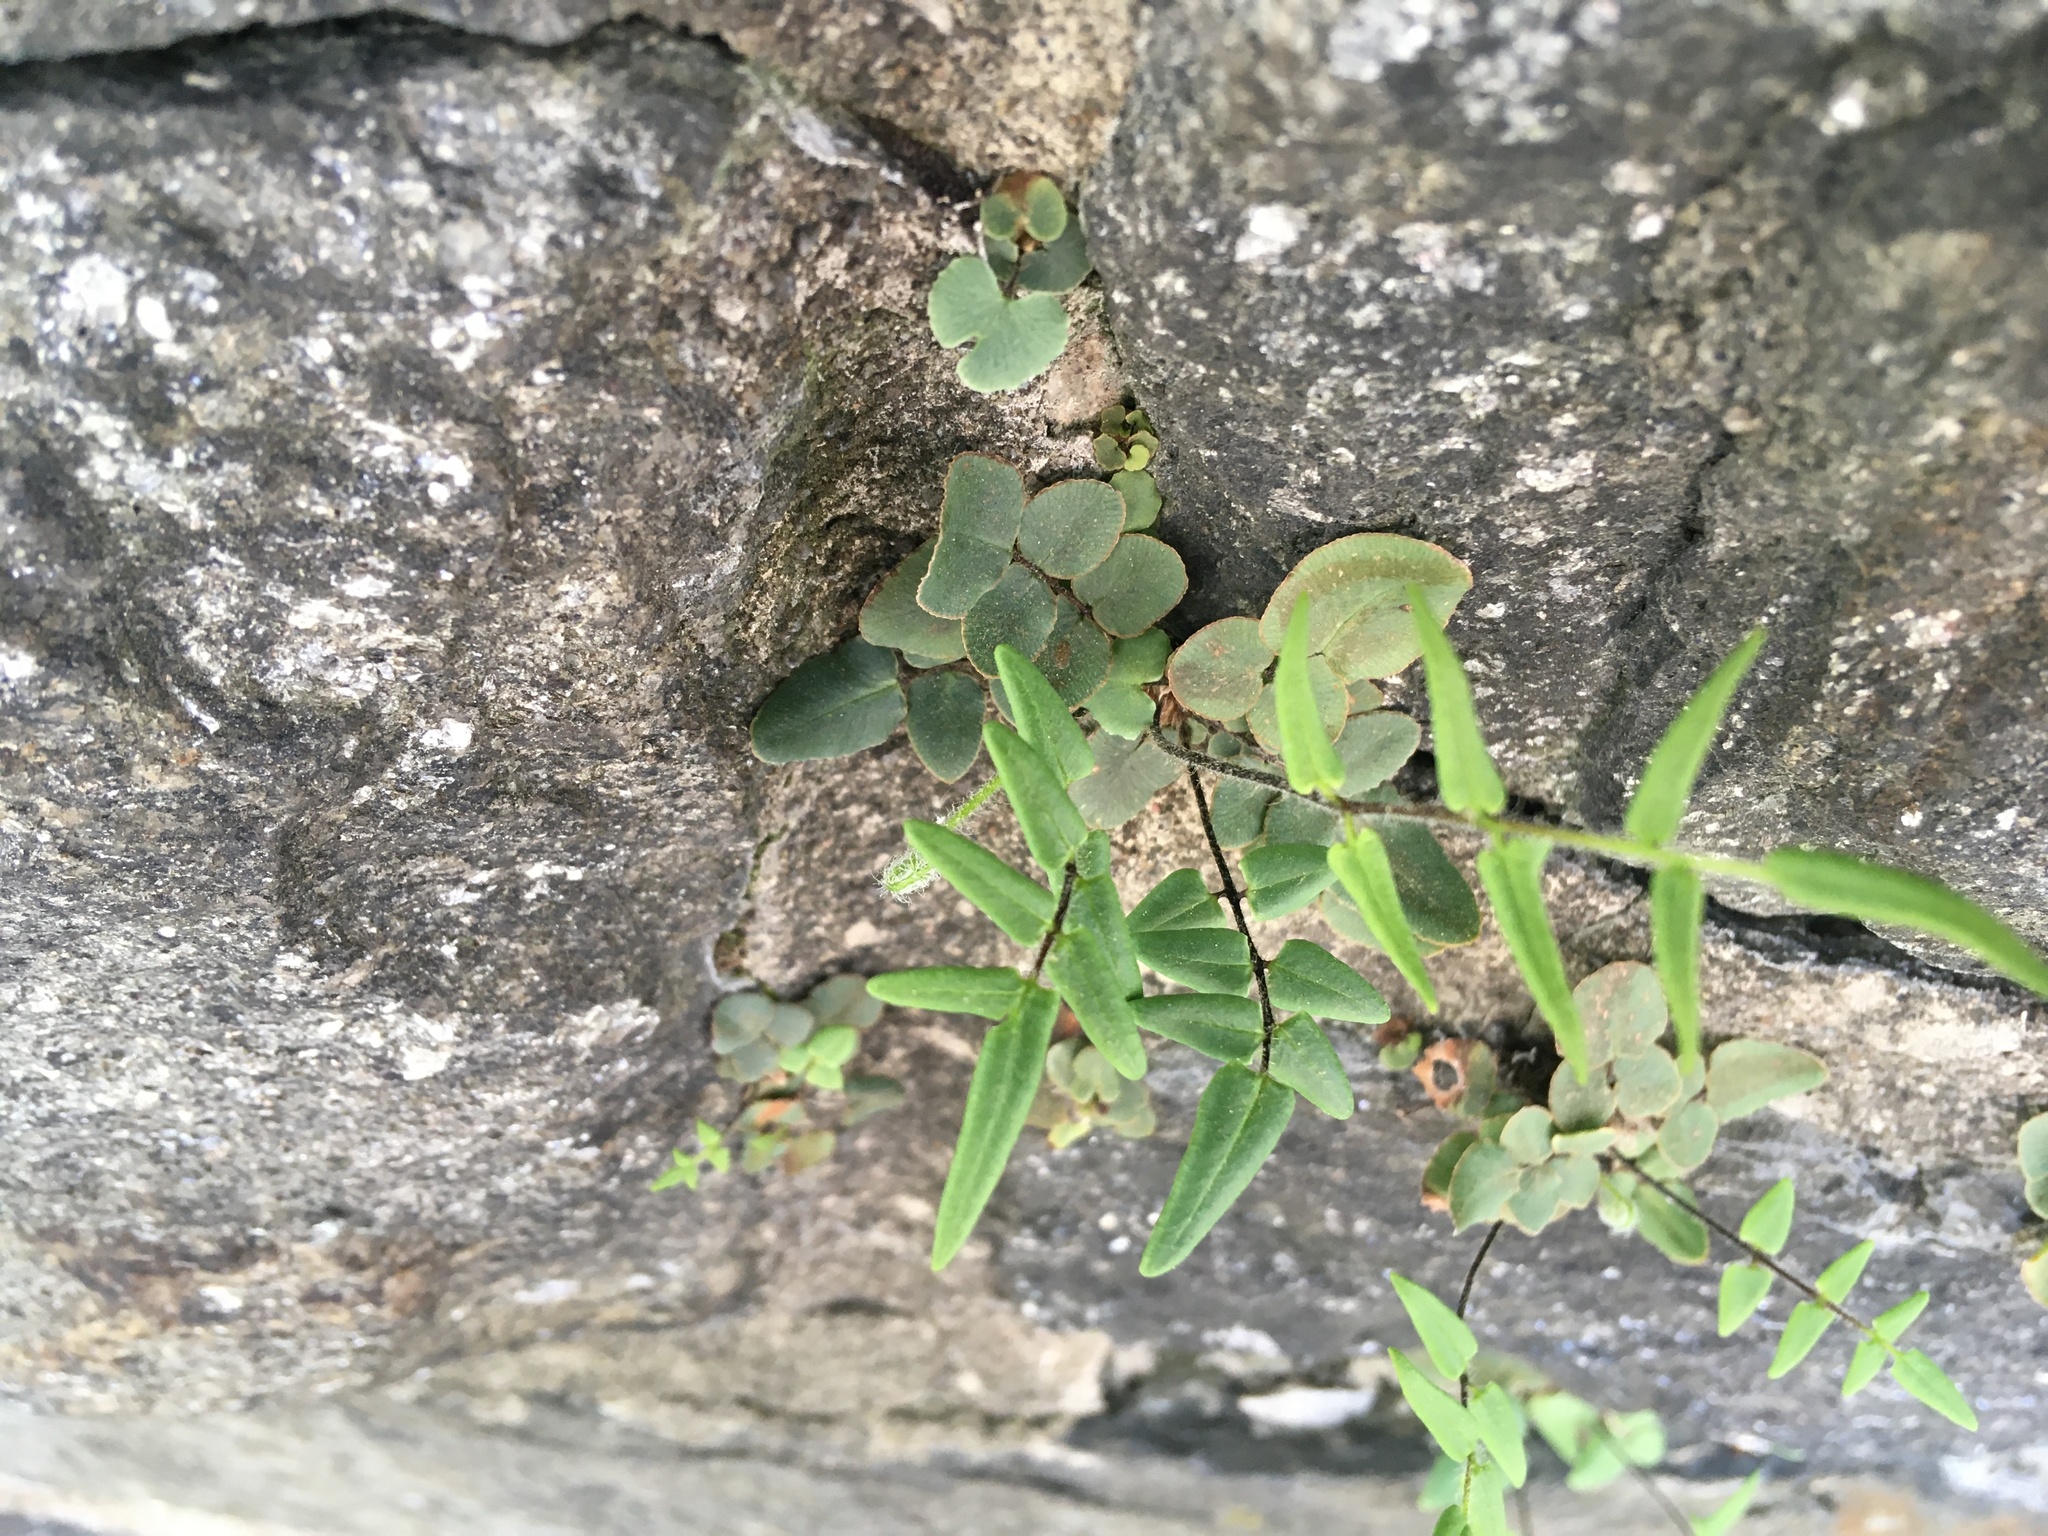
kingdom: Plantae
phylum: Tracheophyta
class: Polypodiopsida
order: Polypodiales
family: Pteridaceae
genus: Pellaea
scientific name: Pellaea atropurpurea
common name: Hairy cliffbrake
